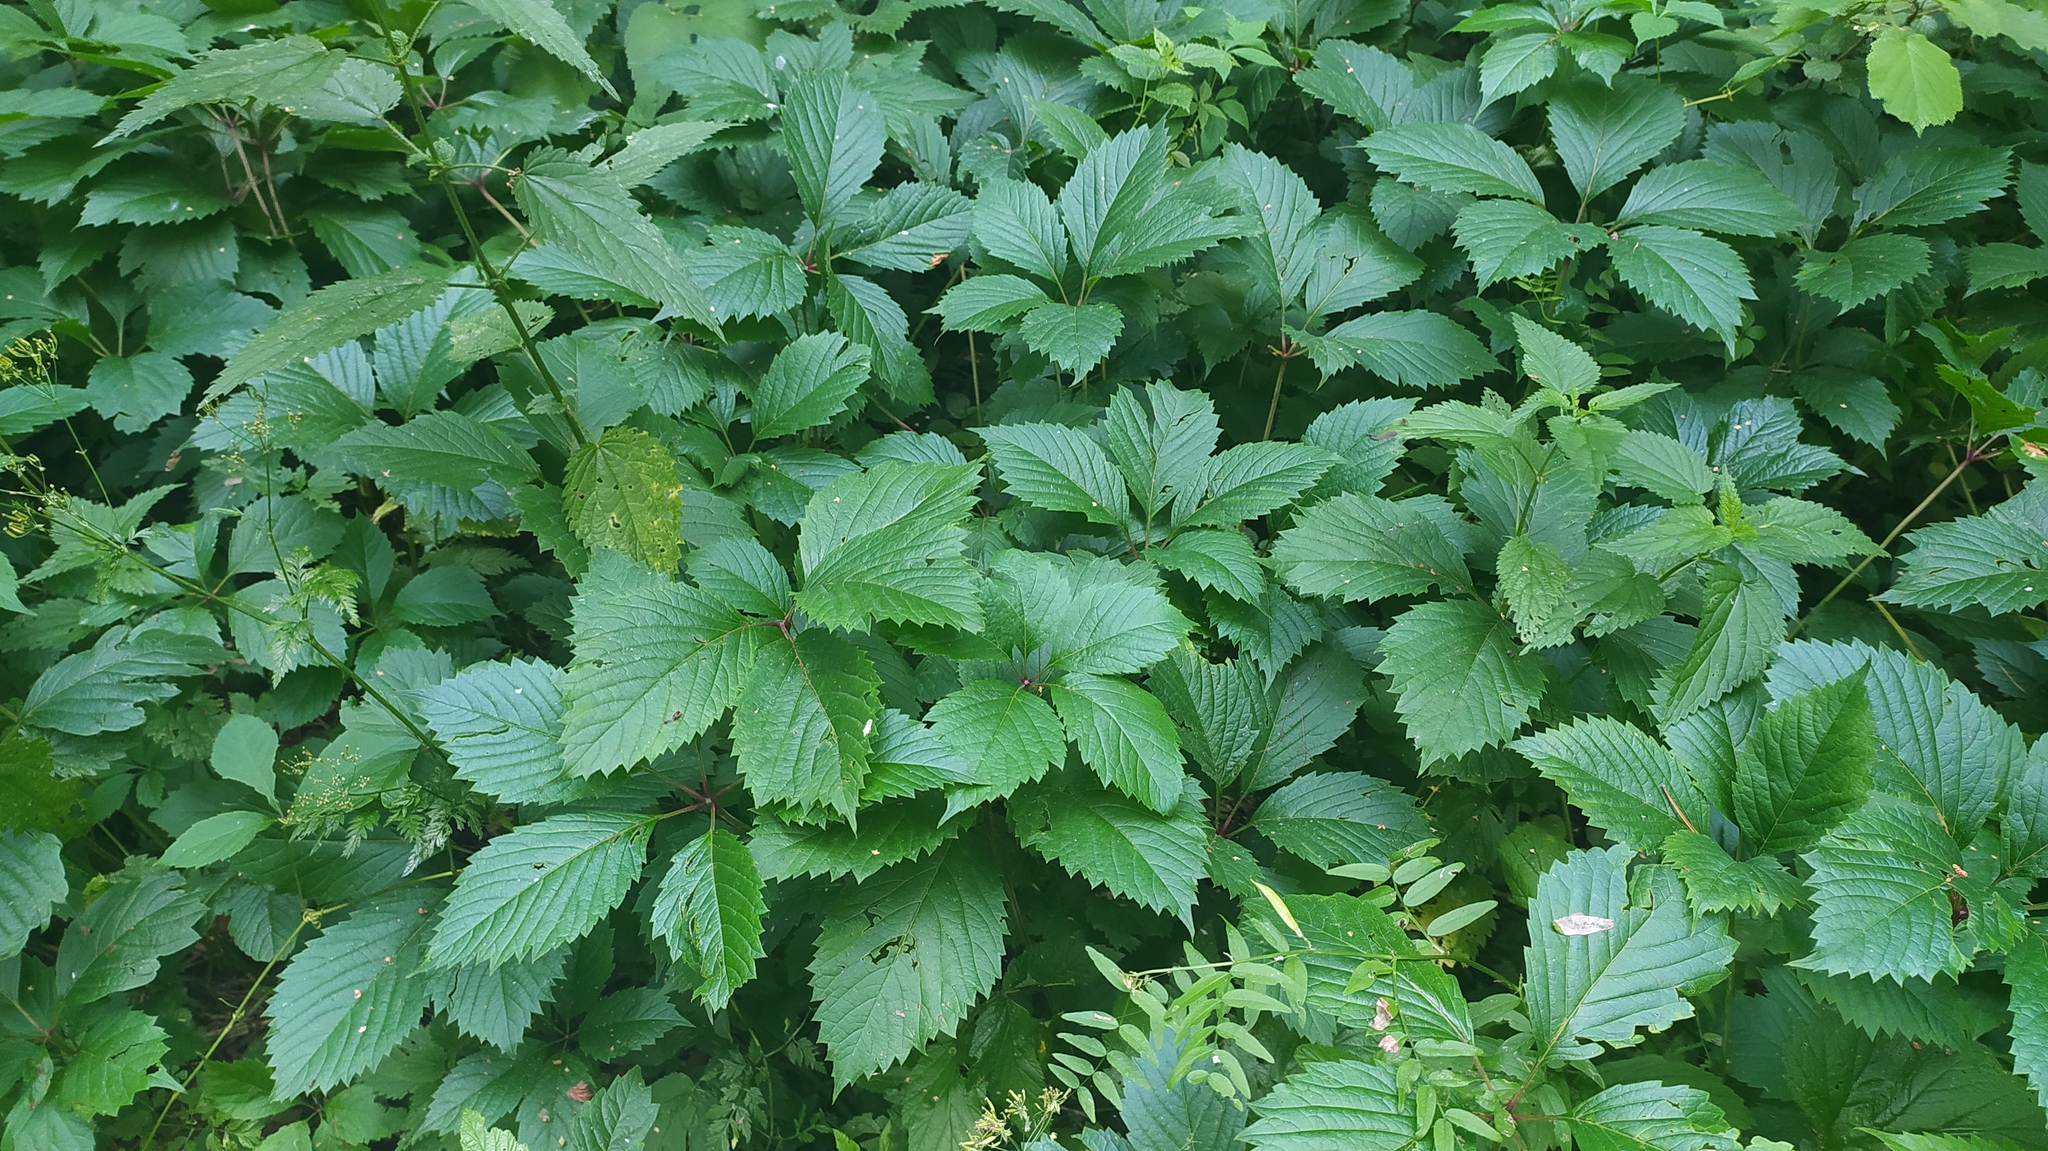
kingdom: Plantae
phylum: Tracheophyta
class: Magnoliopsida
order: Vitales
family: Vitaceae
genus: Parthenocissus
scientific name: Parthenocissus inserta
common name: False virginia-creeper
